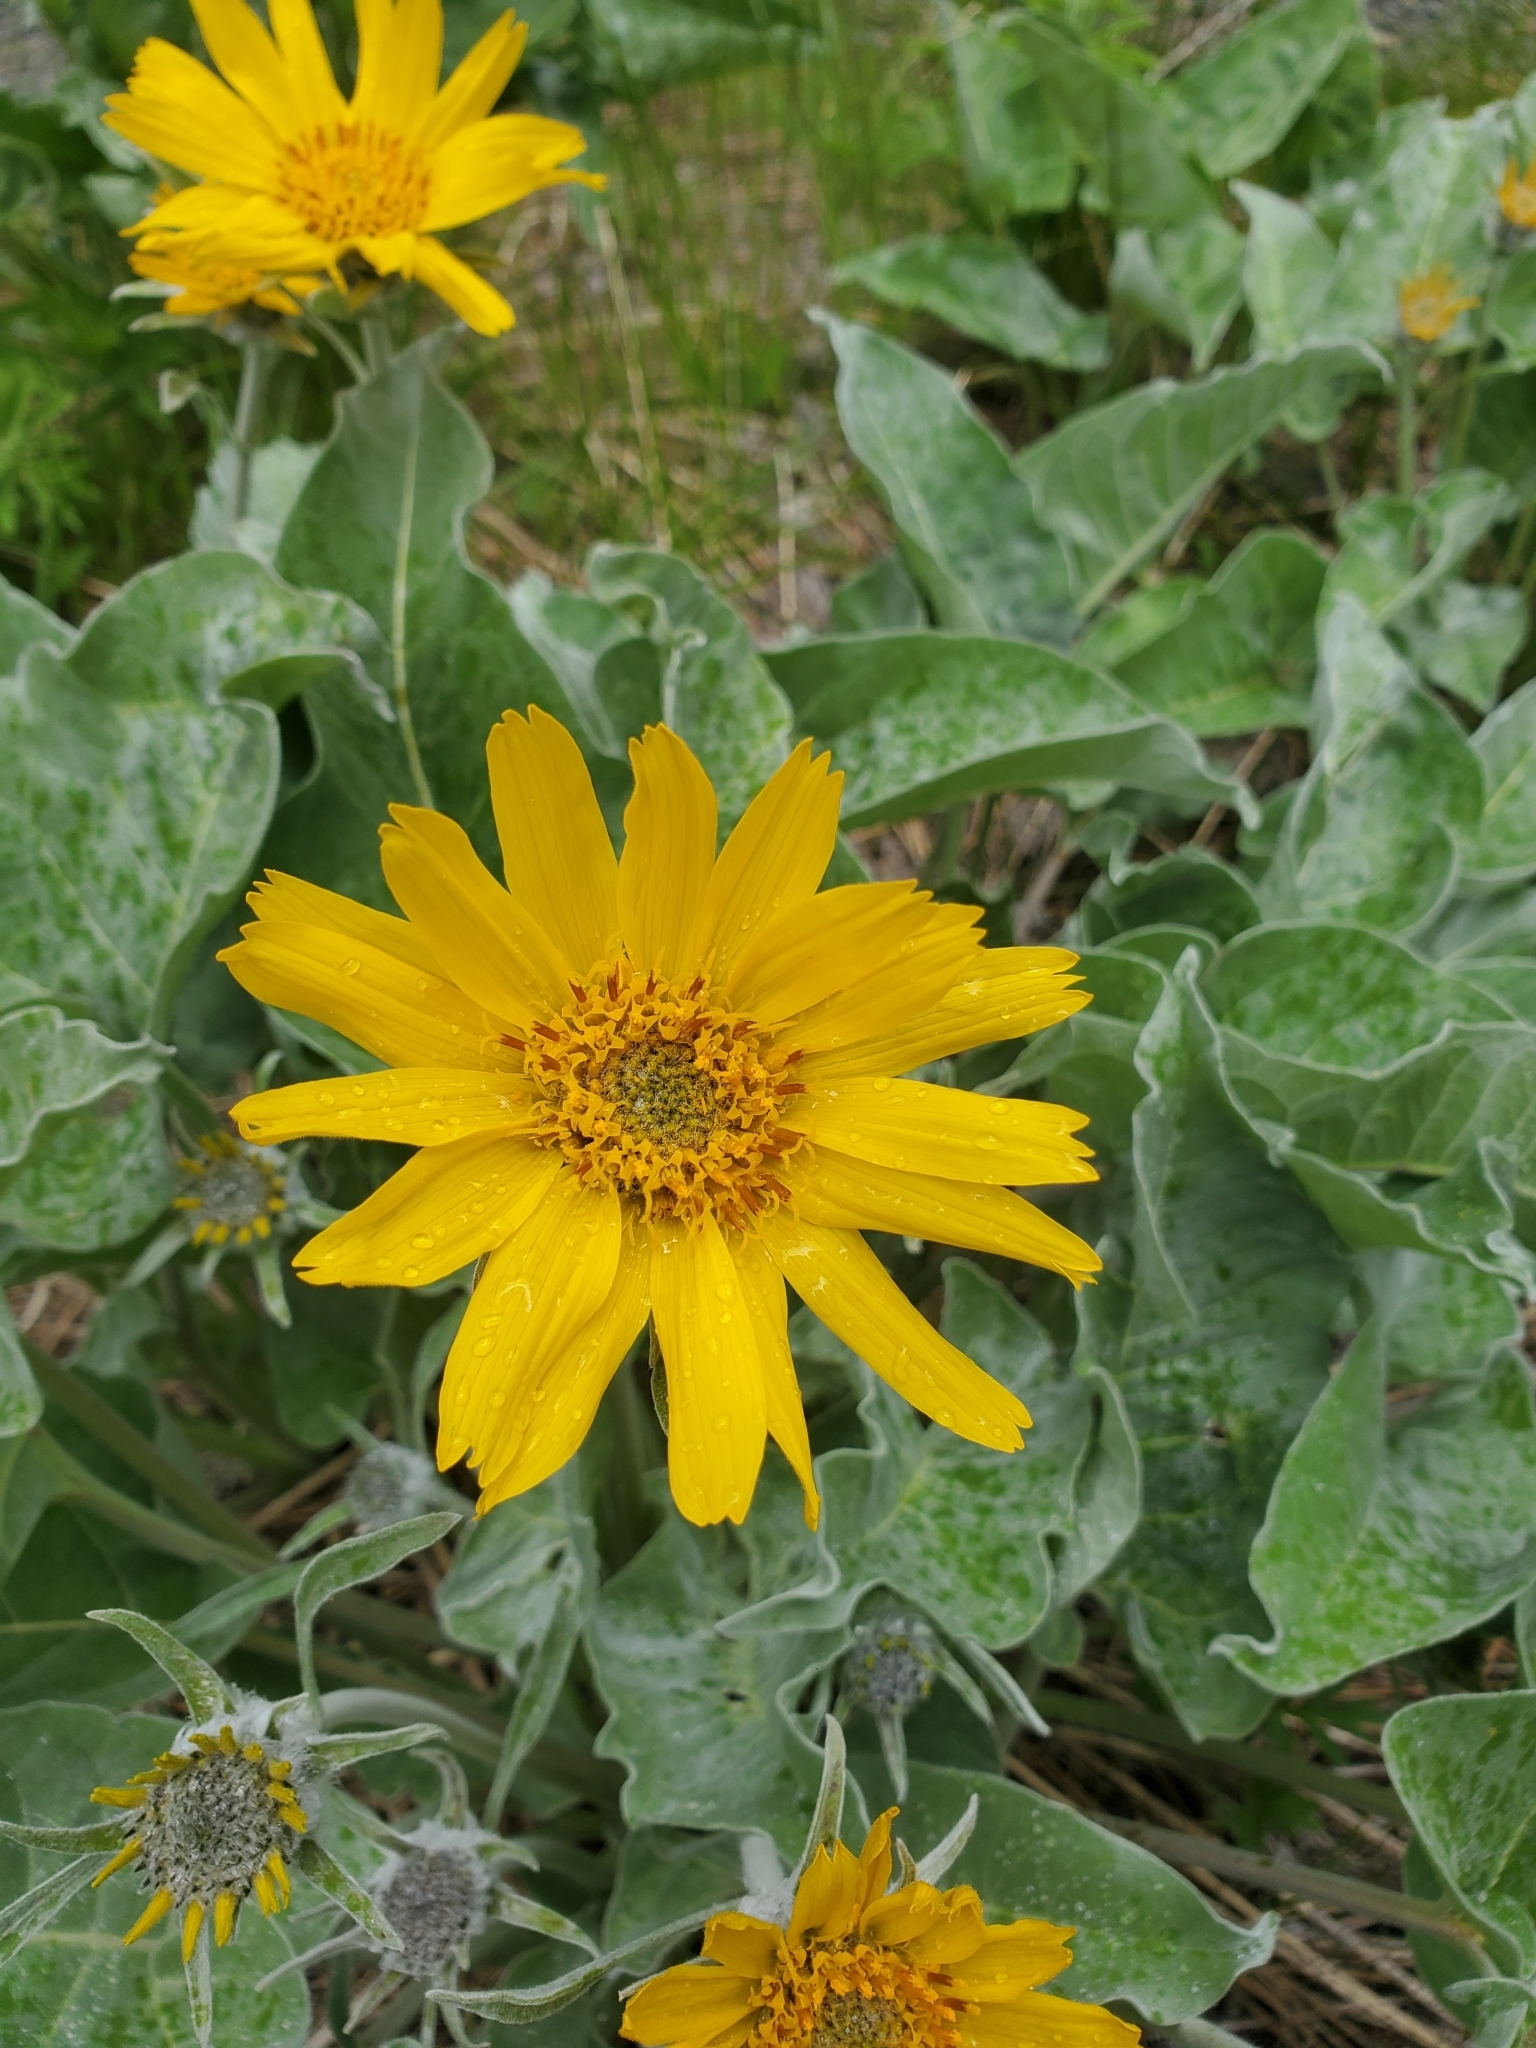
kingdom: Plantae
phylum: Tracheophyta
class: Magnoliopsida
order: Asterales
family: Asteraceae
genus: Wyethia
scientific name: Wyethia sagittata
